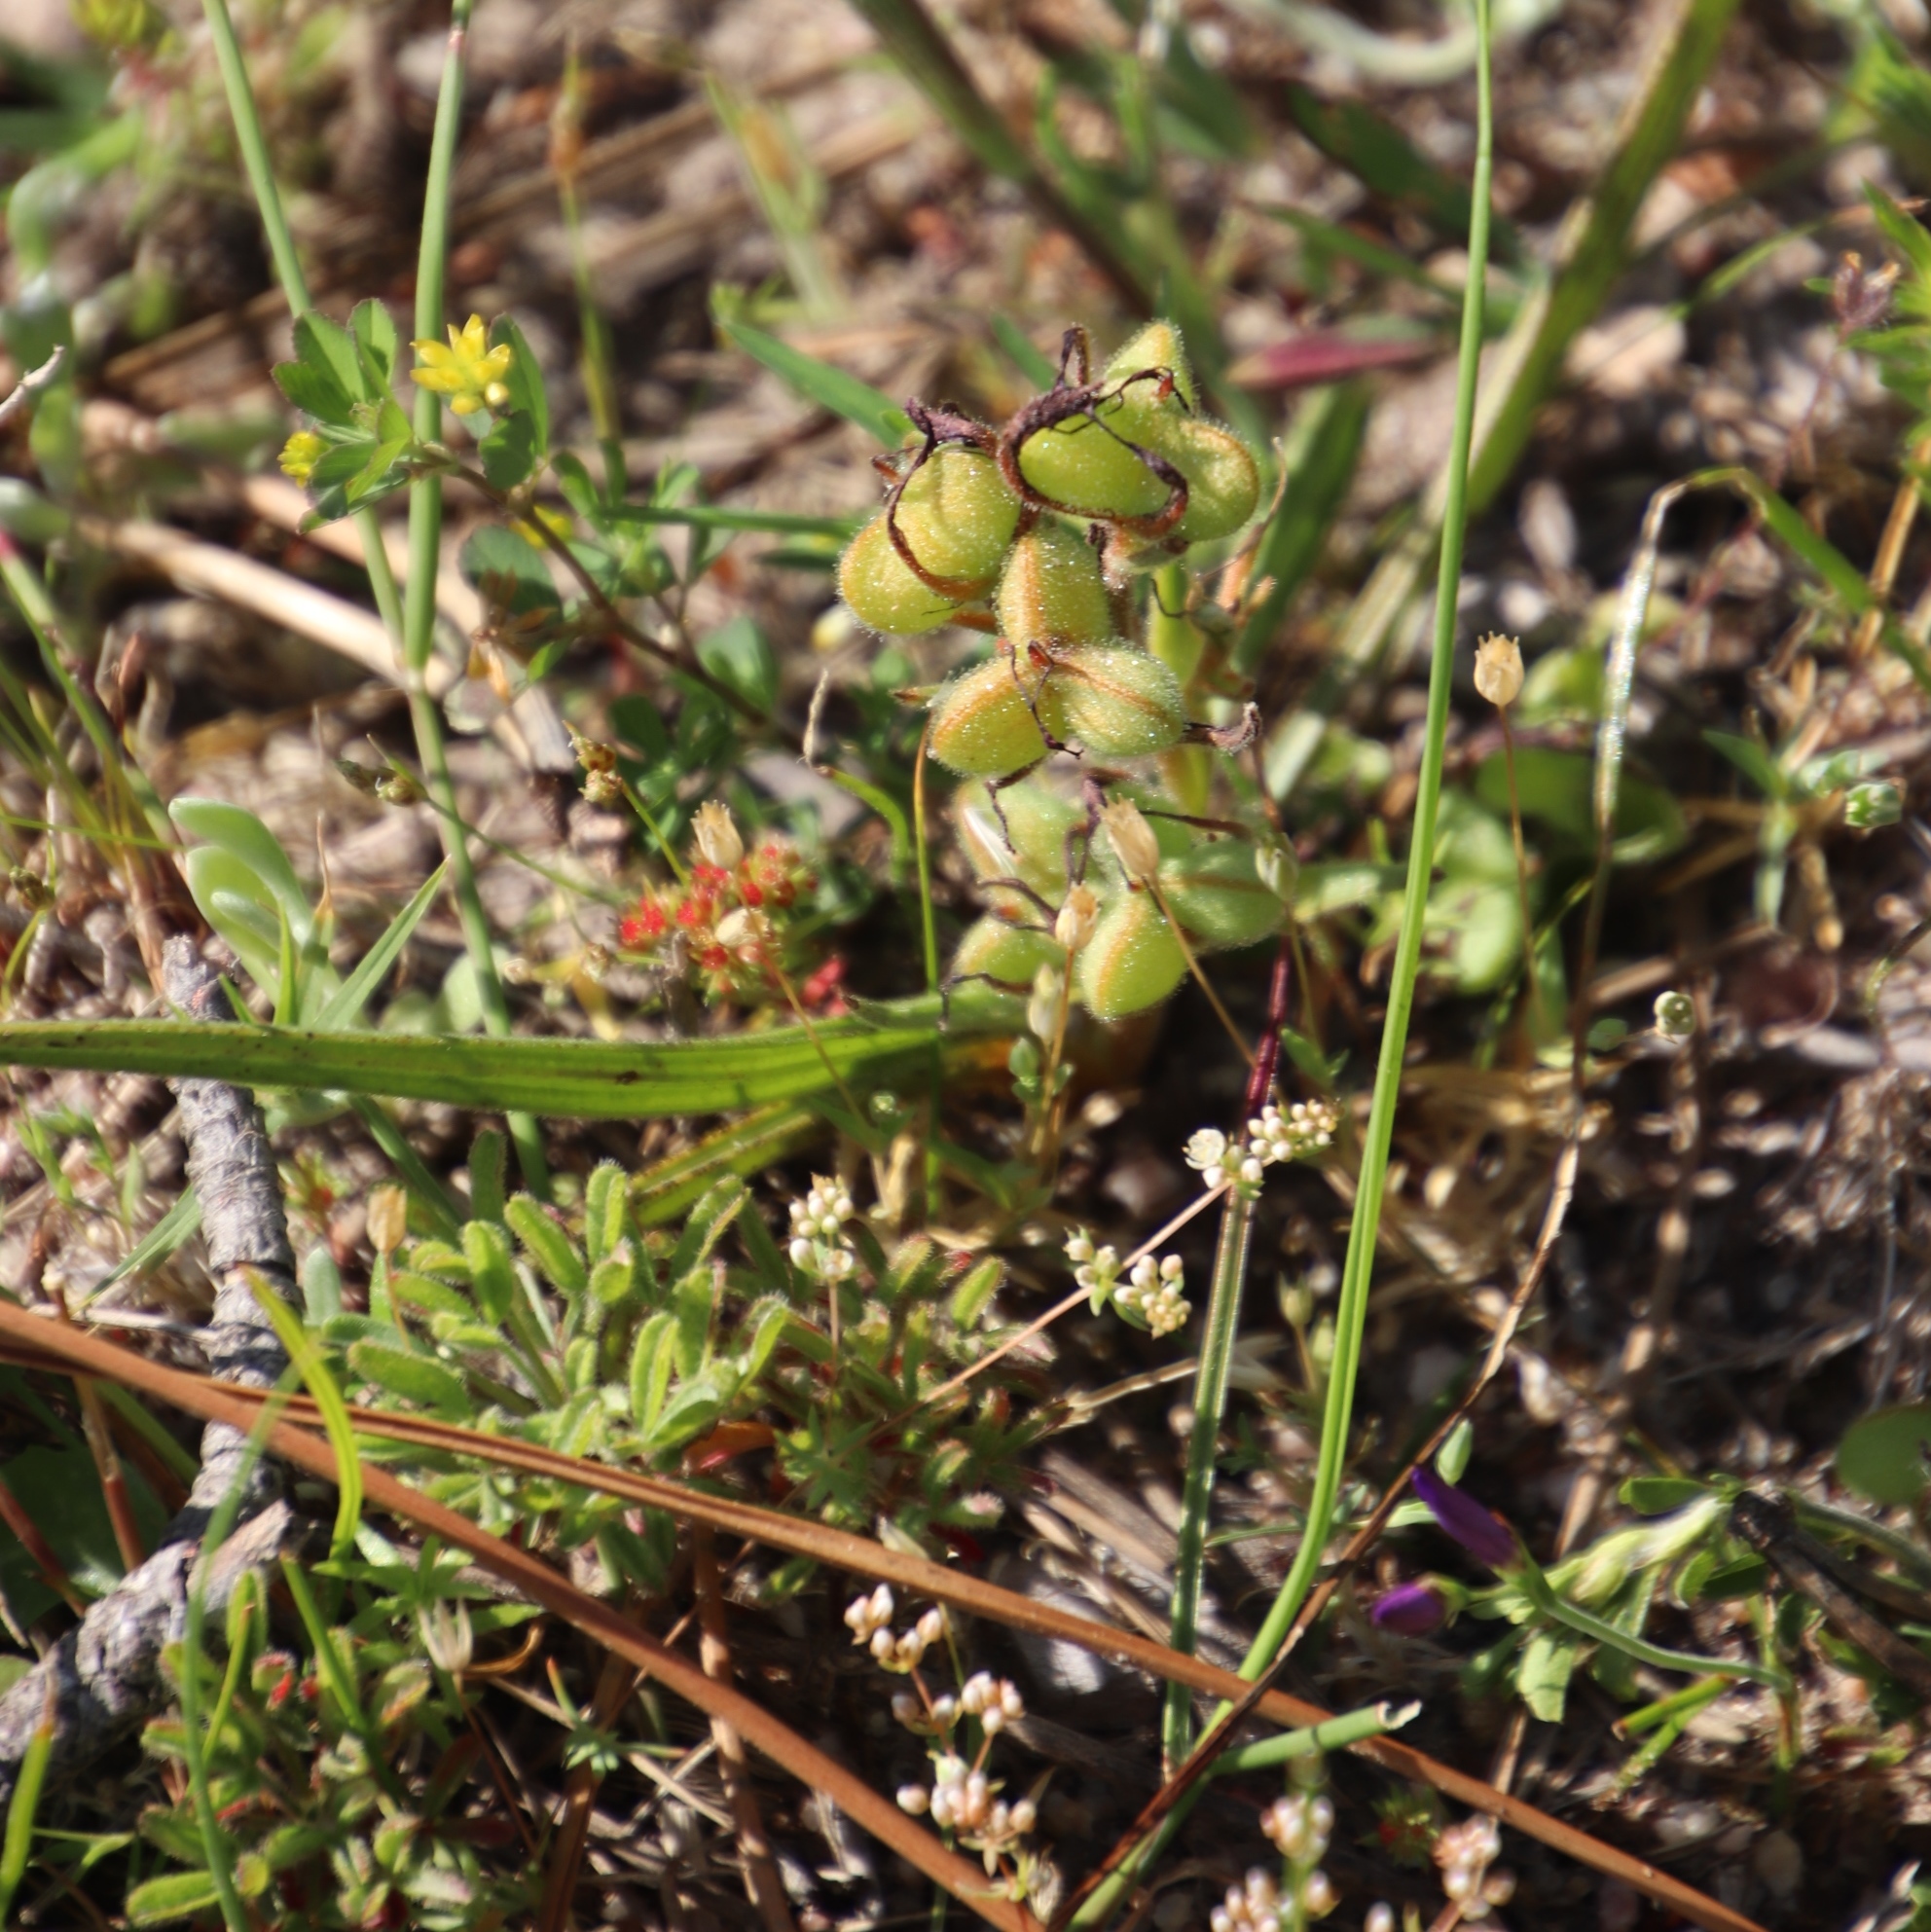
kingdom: Plantae
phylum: Tracheophyta
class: Liliopsida
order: Commelinales
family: Haemodoraceae
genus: Wachendorfia
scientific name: Wachendorfia multiflora
